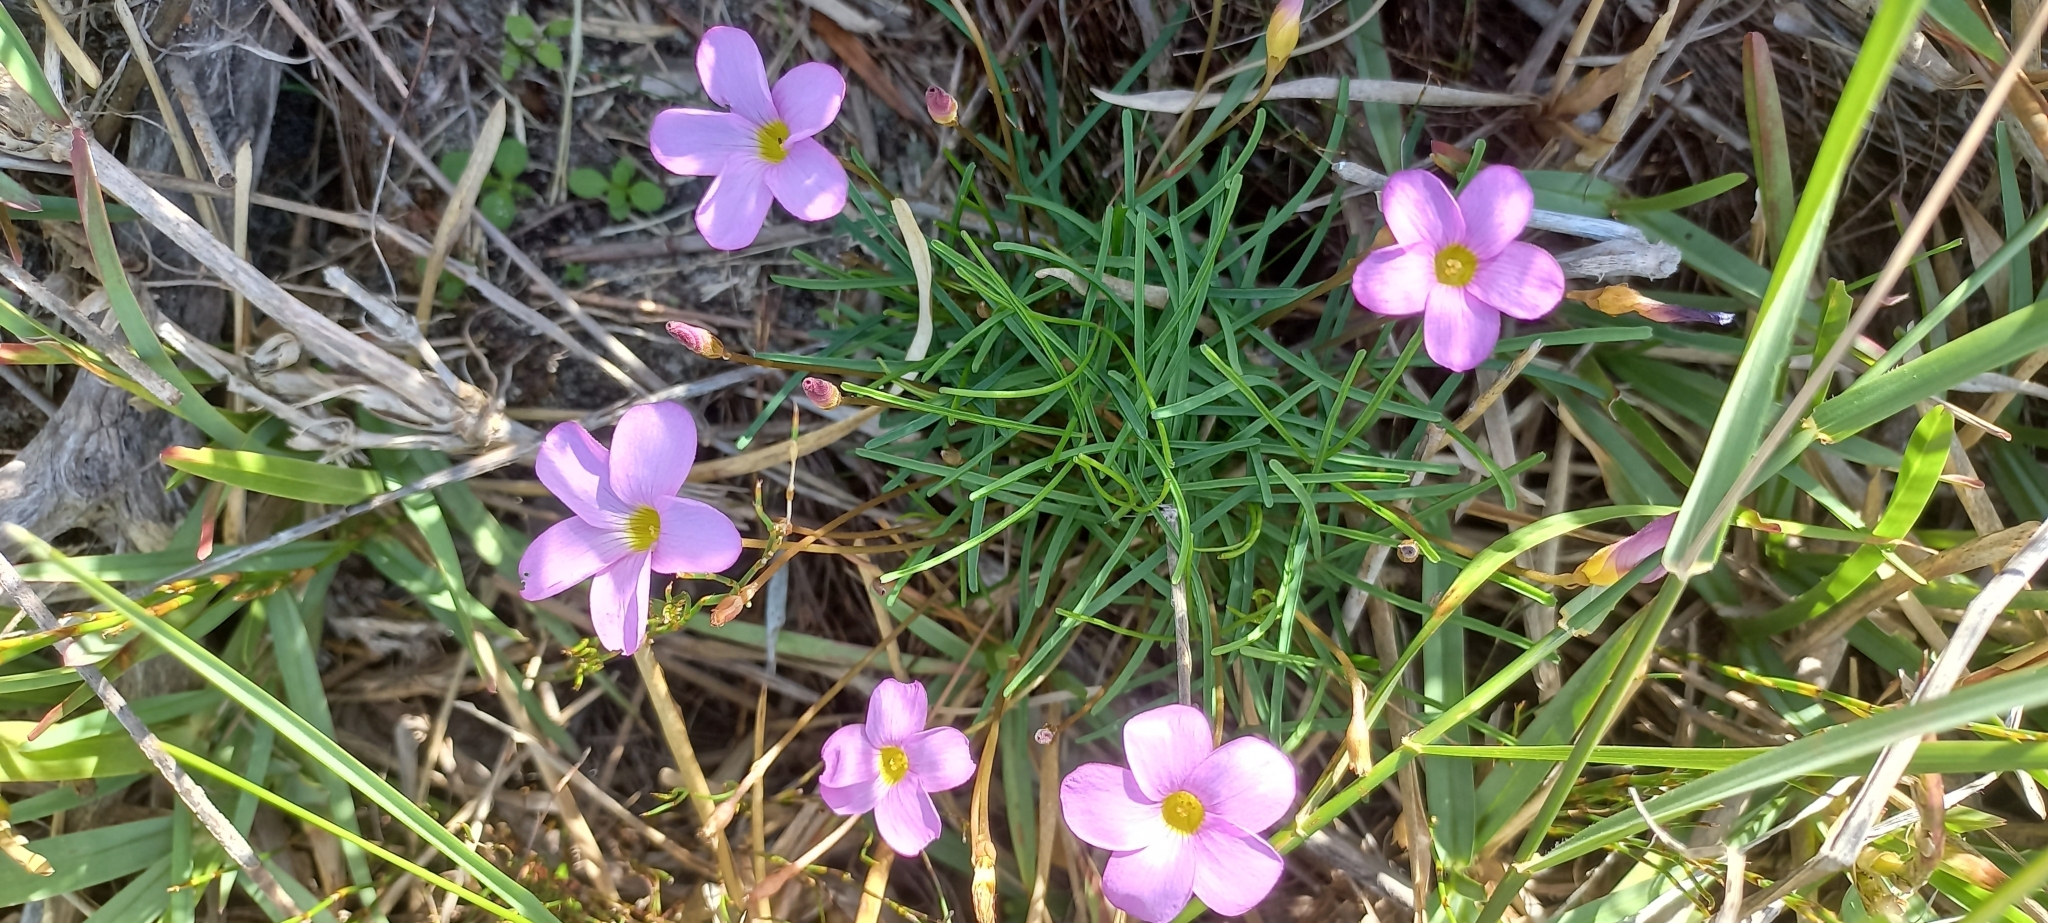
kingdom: Plantae
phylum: Tracheophyta
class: Magnoliopsida
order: Oxalidales
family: Oxalidaceae
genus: Oxalis
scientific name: Oxalis polyphylla
